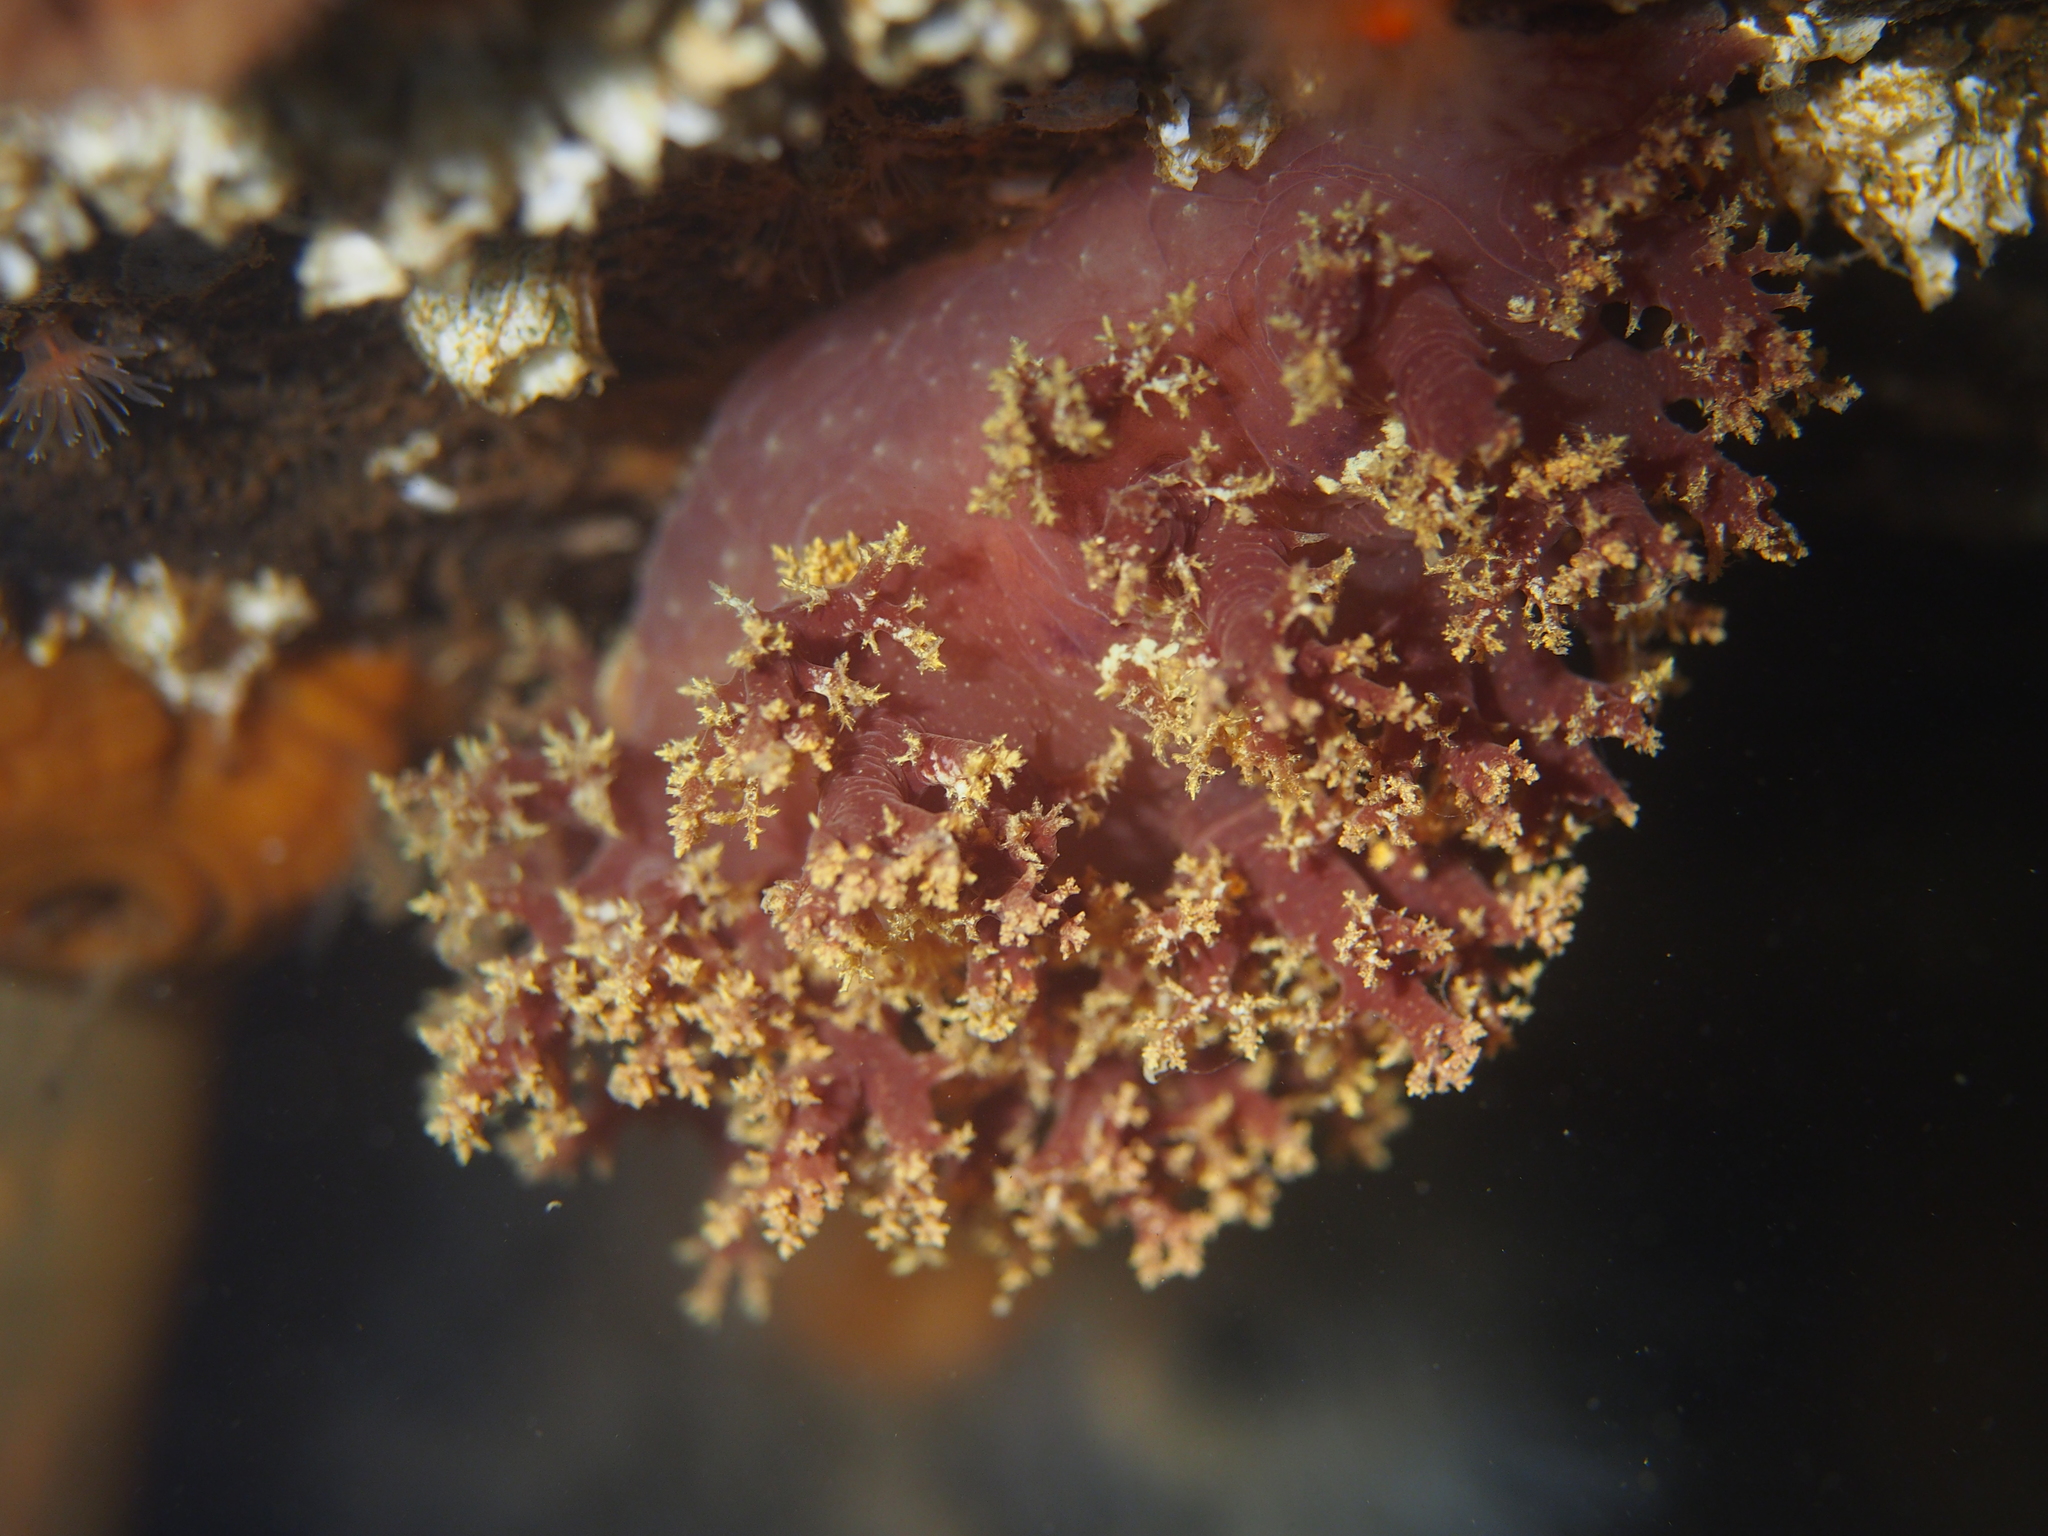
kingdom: Animalia
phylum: Mollusca
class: Gastropoda
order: Nudibranchia
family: Dendronotidae
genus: Dendronotus
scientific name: Dendronotus lacteus
